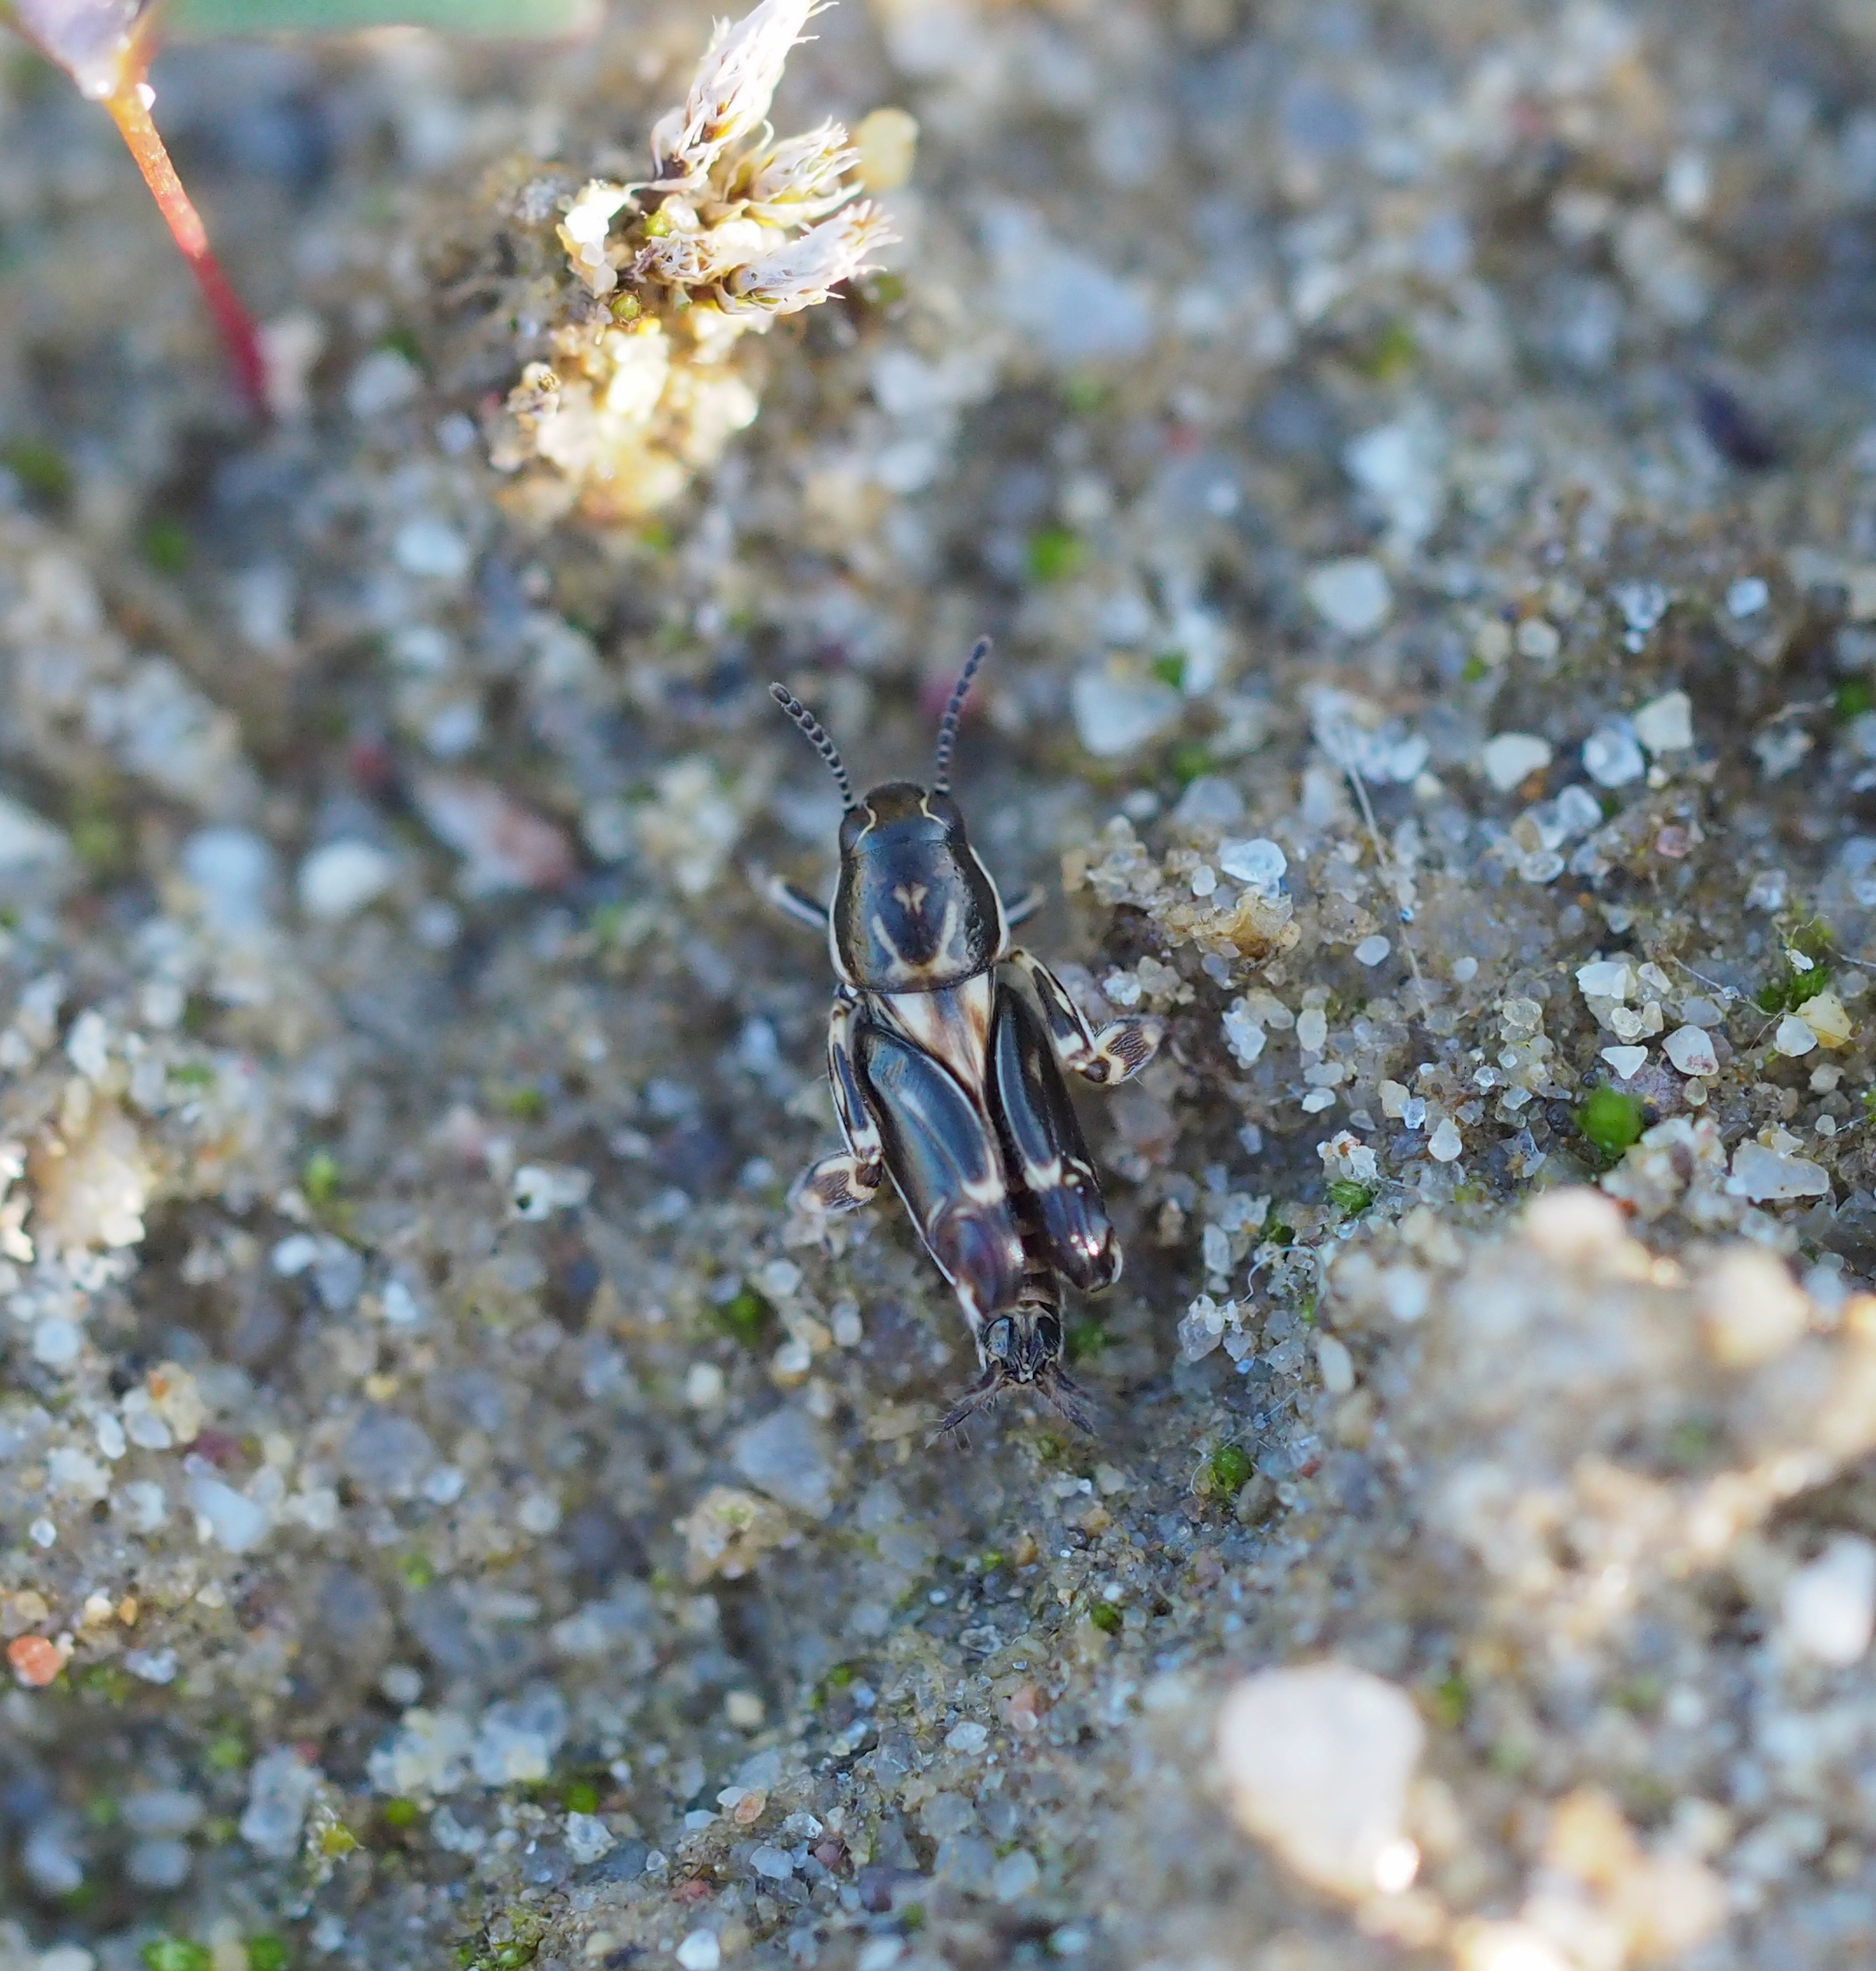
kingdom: Animalia
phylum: Arthropoda
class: Insecta
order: Orthoptera
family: Tridactylidae
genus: Xya
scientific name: Xya variegata
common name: Le tridactyle panaché
